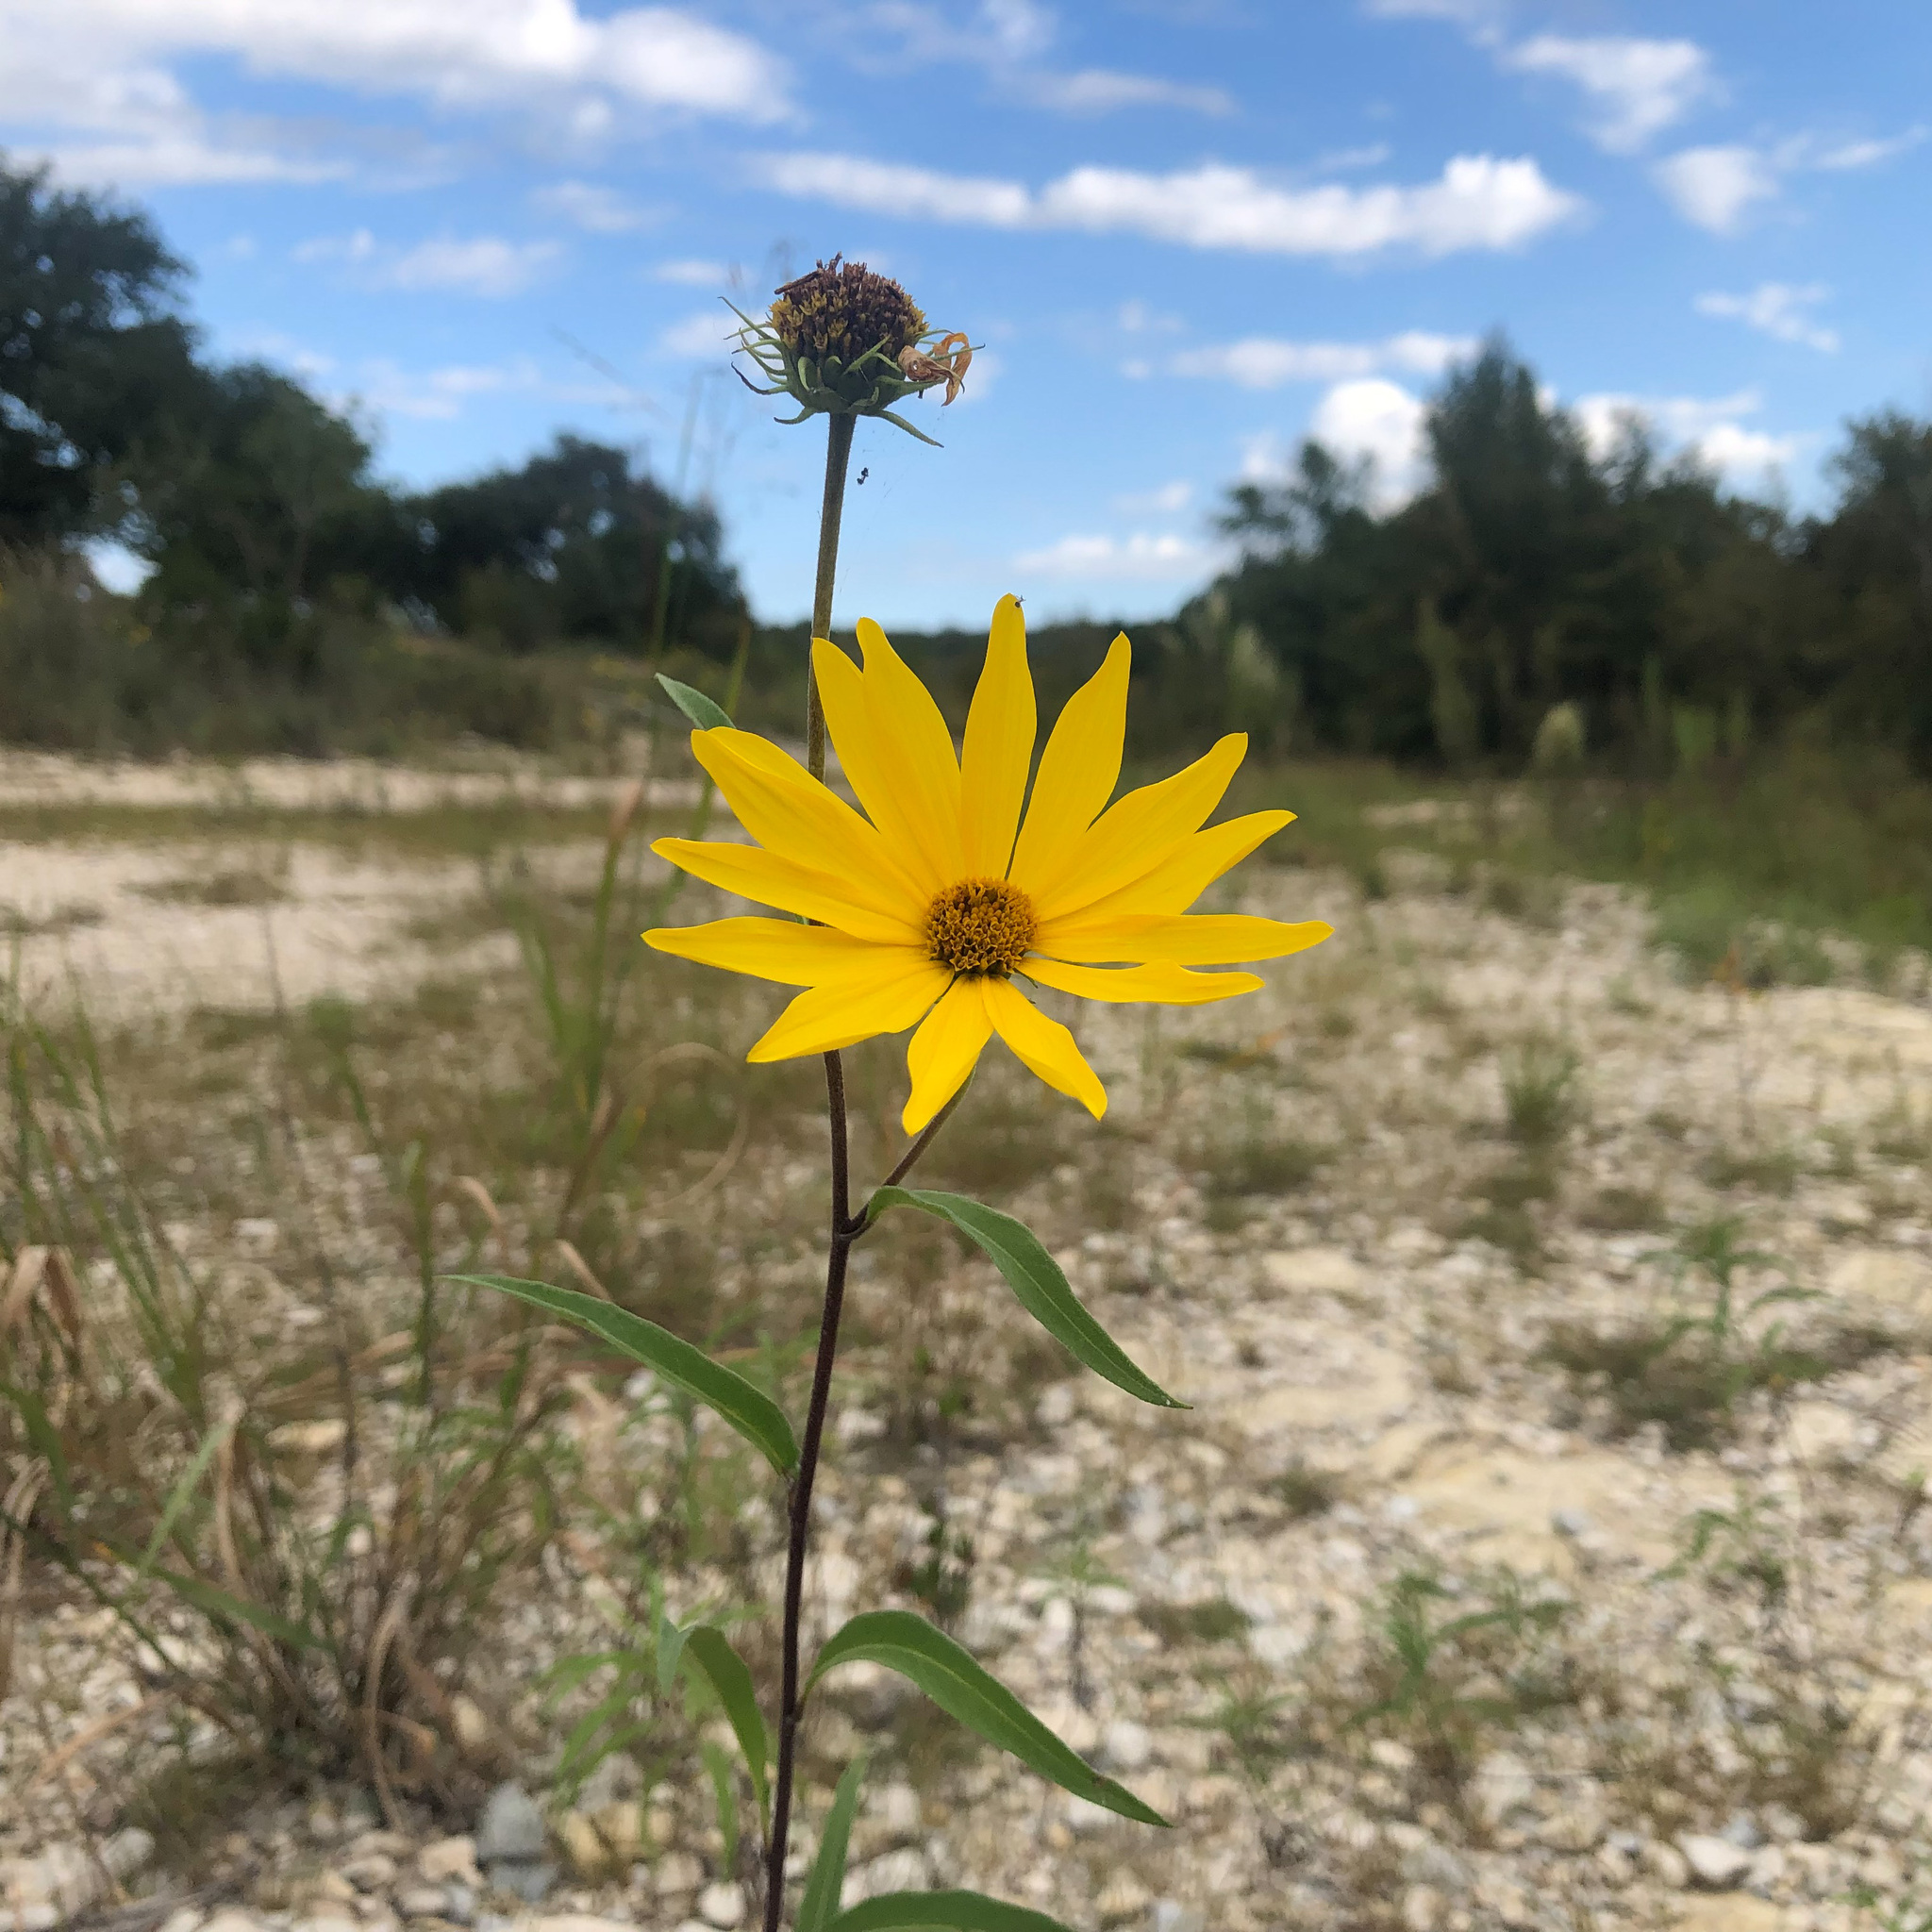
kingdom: Plantae
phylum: Tracheophyta
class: Magnoliopsida
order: Asterales
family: Asteraceae
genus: Helianthus
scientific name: Helianthus maximiliani
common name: Maximilian's sunflower
